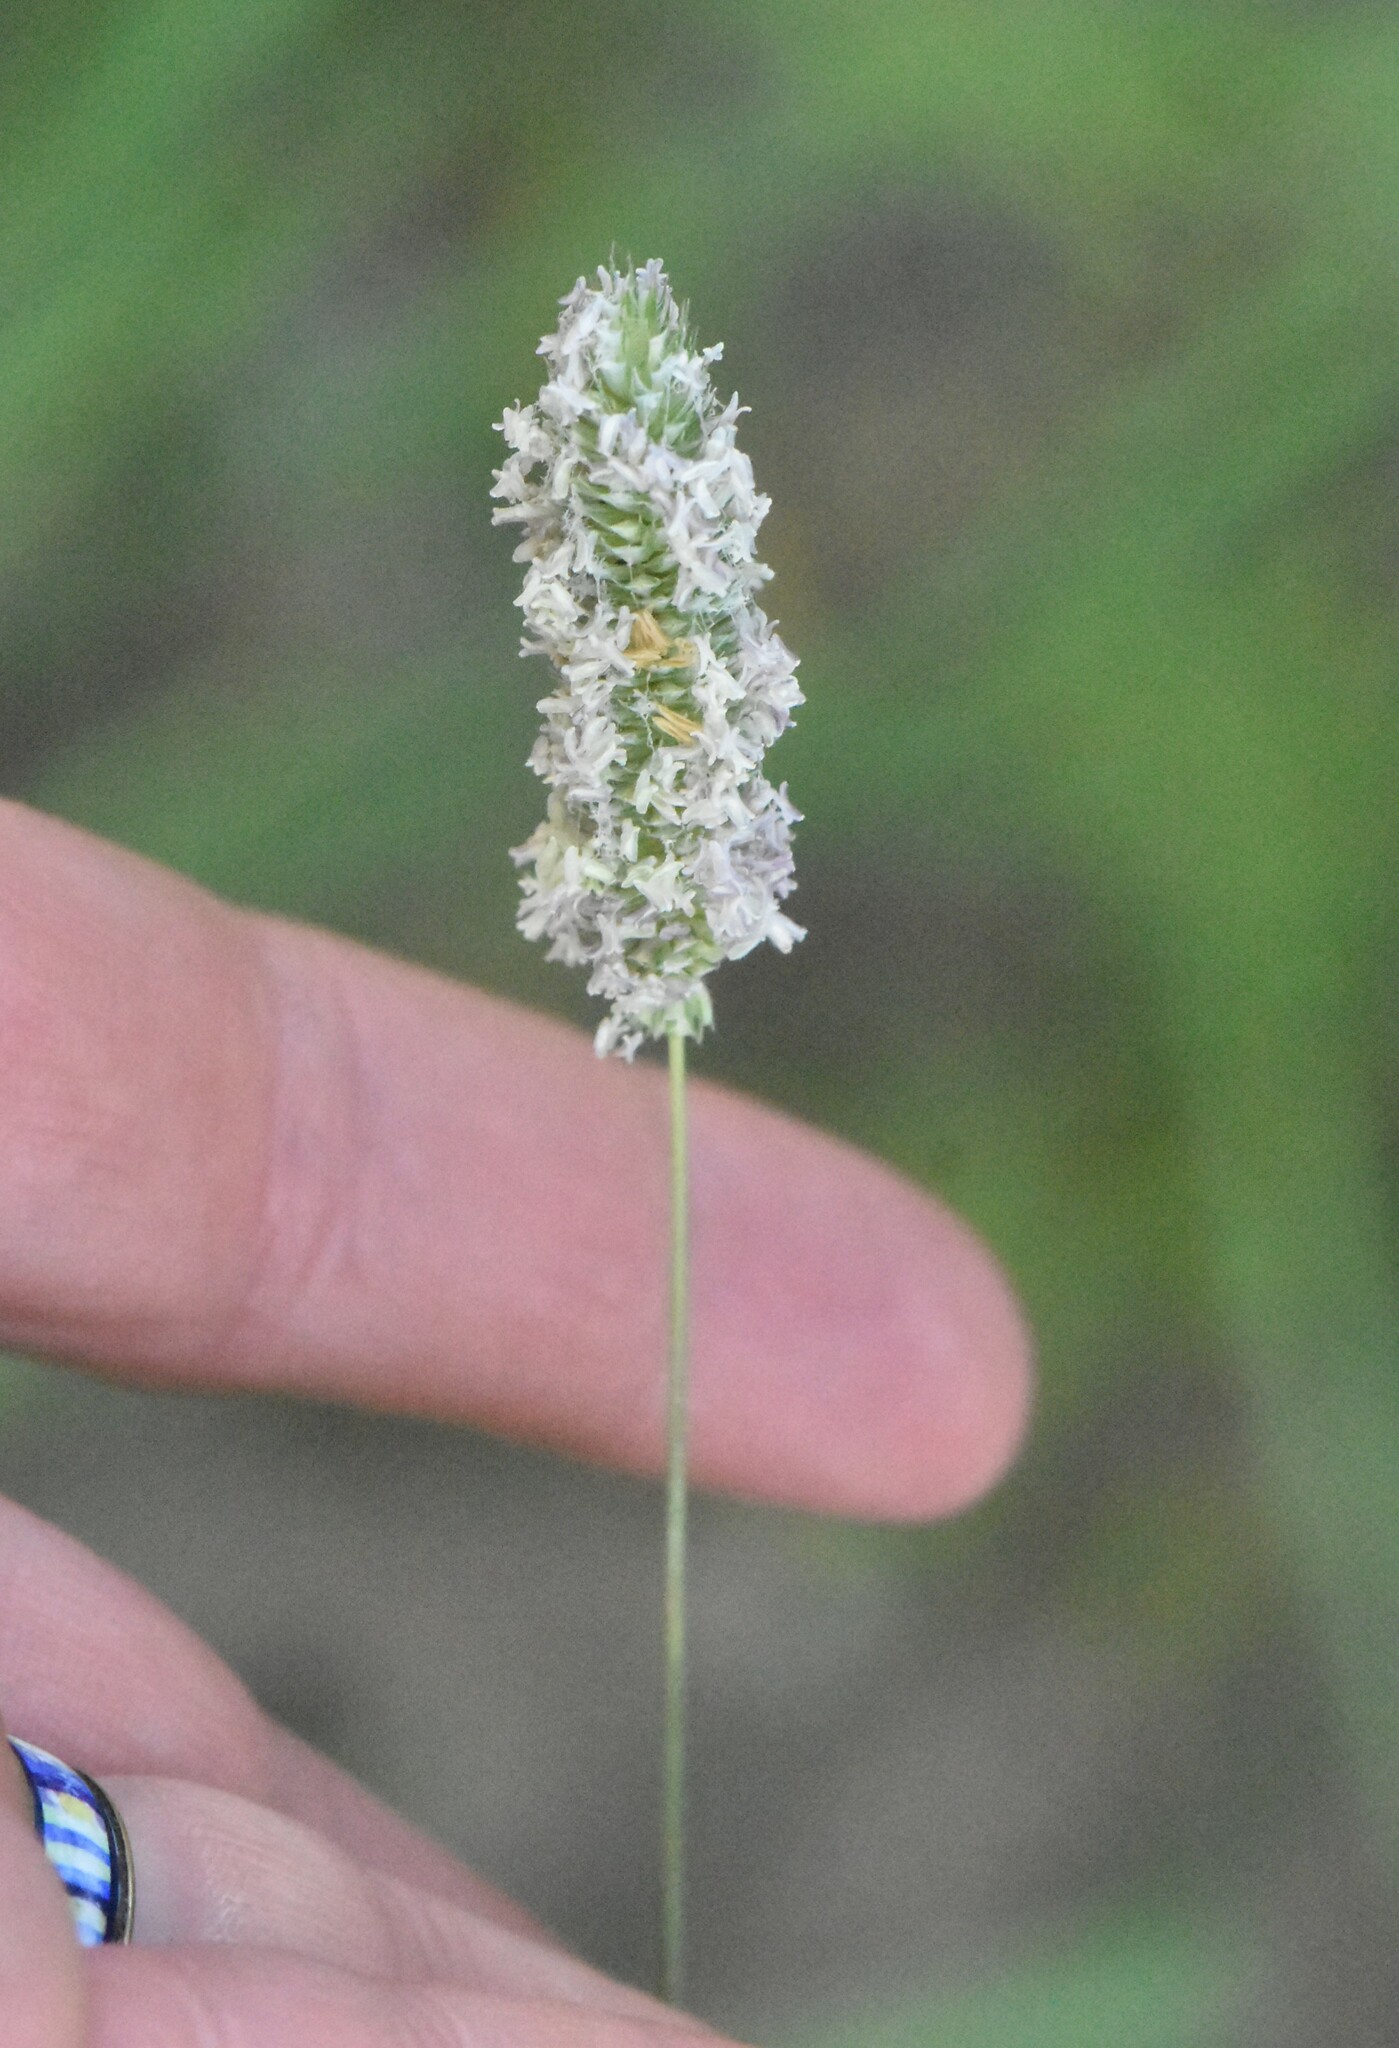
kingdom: Plantae
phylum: Tracheophyta
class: Liliopsida
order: Poales
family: Poaceae
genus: Phleum
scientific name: Phleum pratense
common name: Timothy grass
